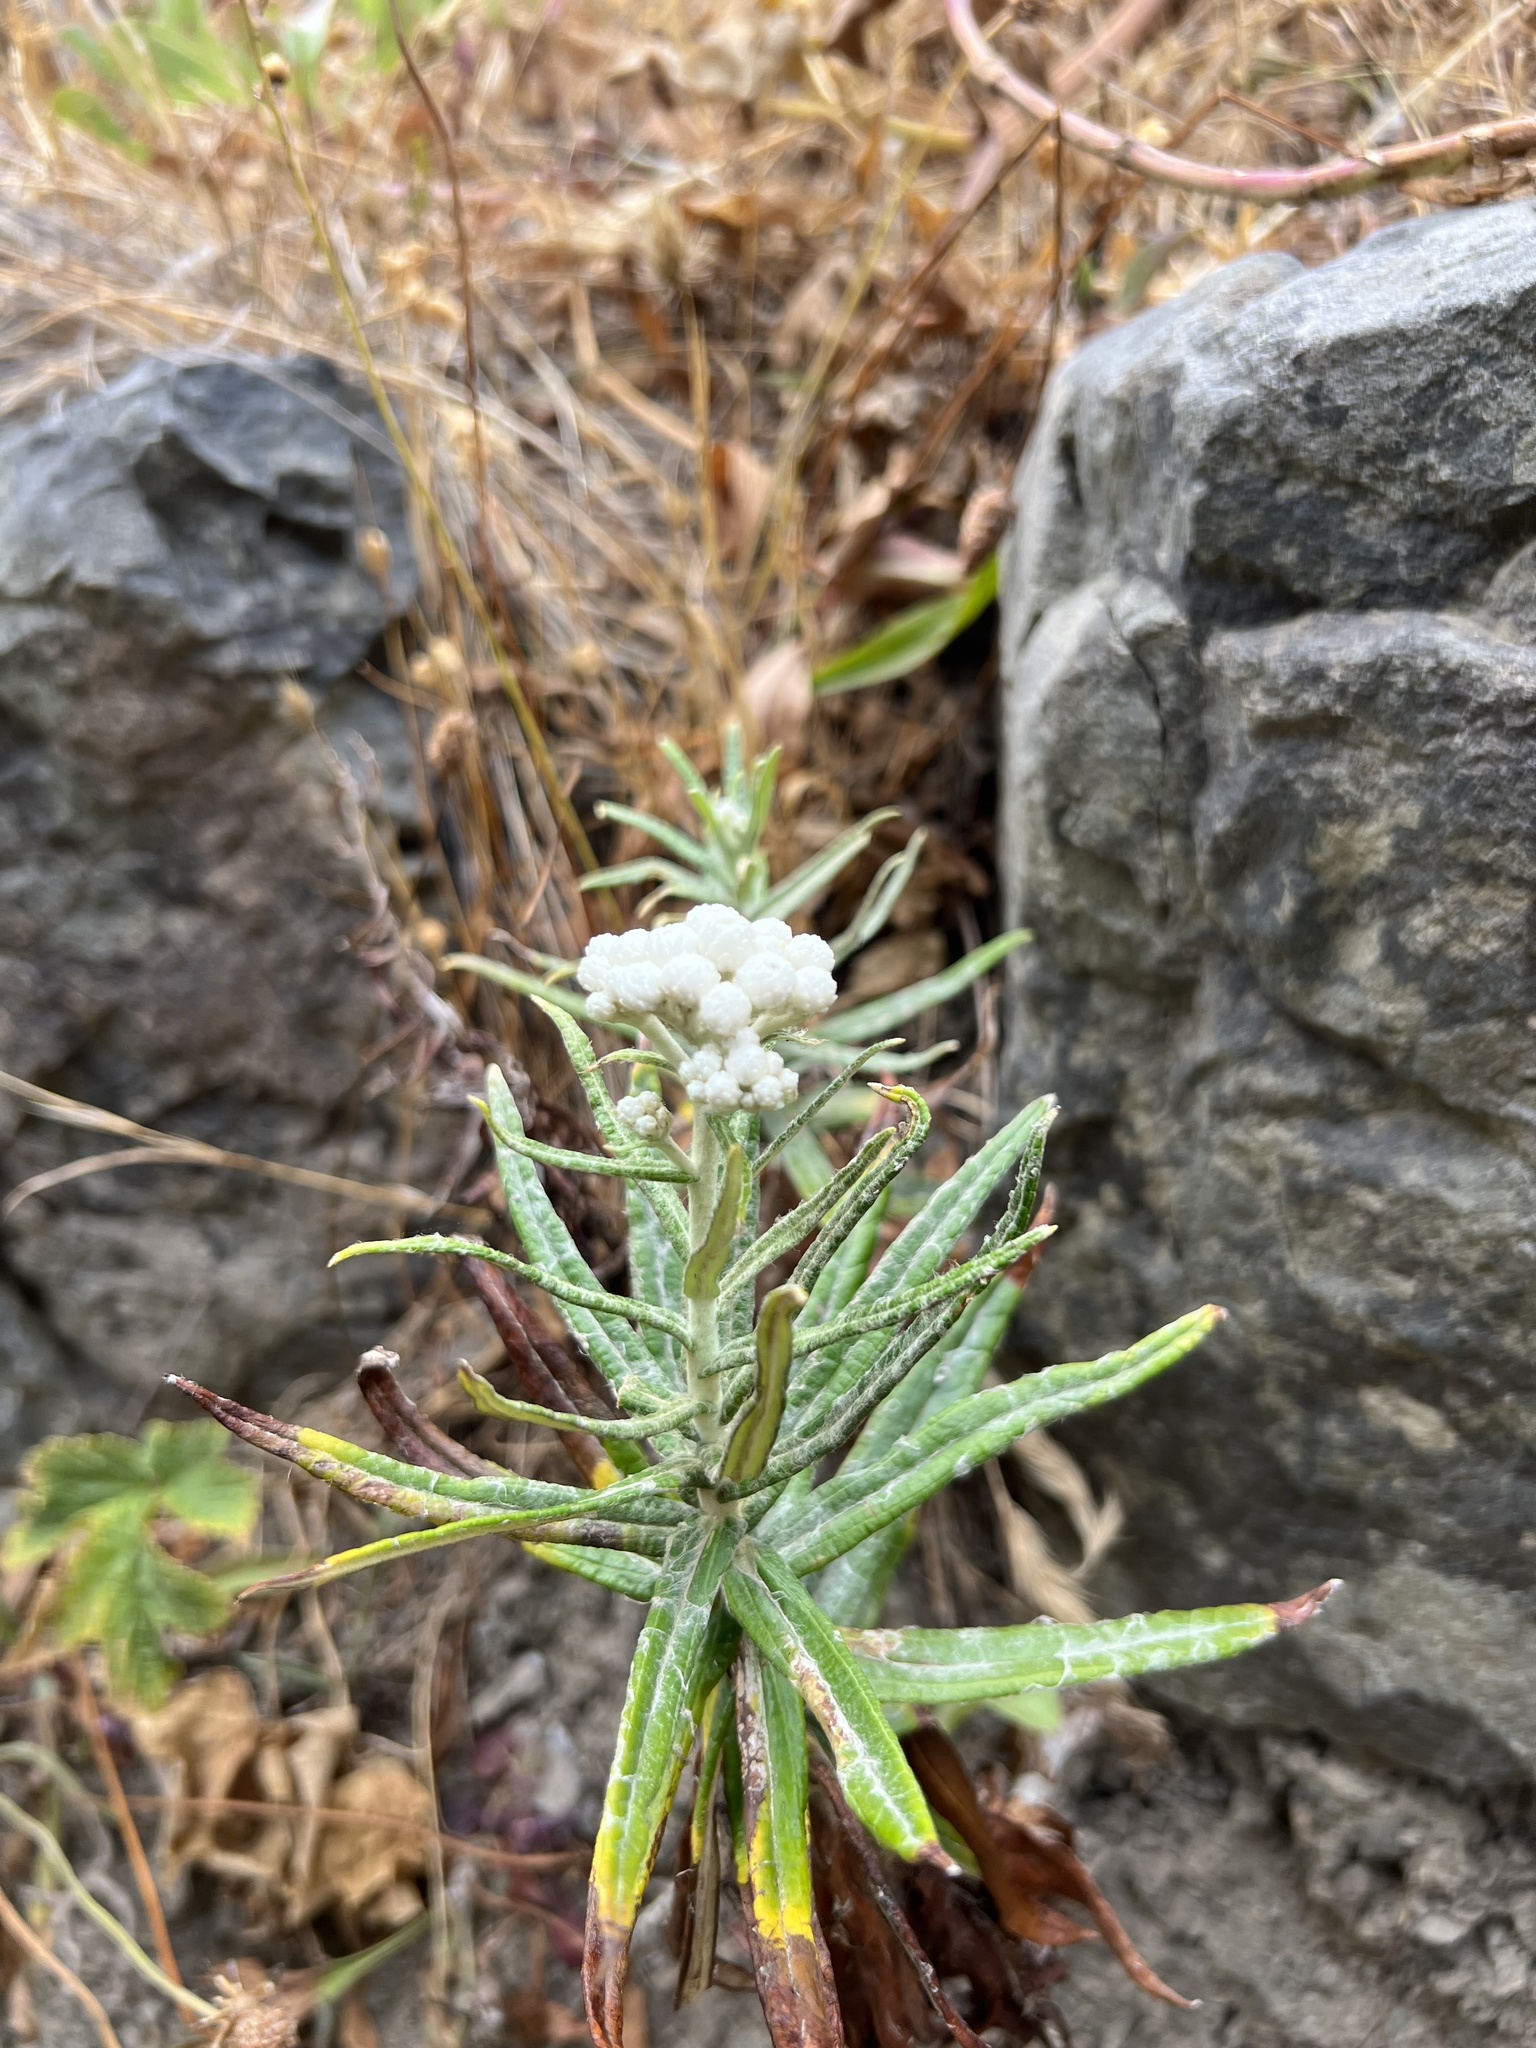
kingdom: Plantae
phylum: Tracheophyta
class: Magnoliopsida
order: Asterales
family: Asteraceae
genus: Anaphalis
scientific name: Anaphalis margaritacea
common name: Pearly everlasting
